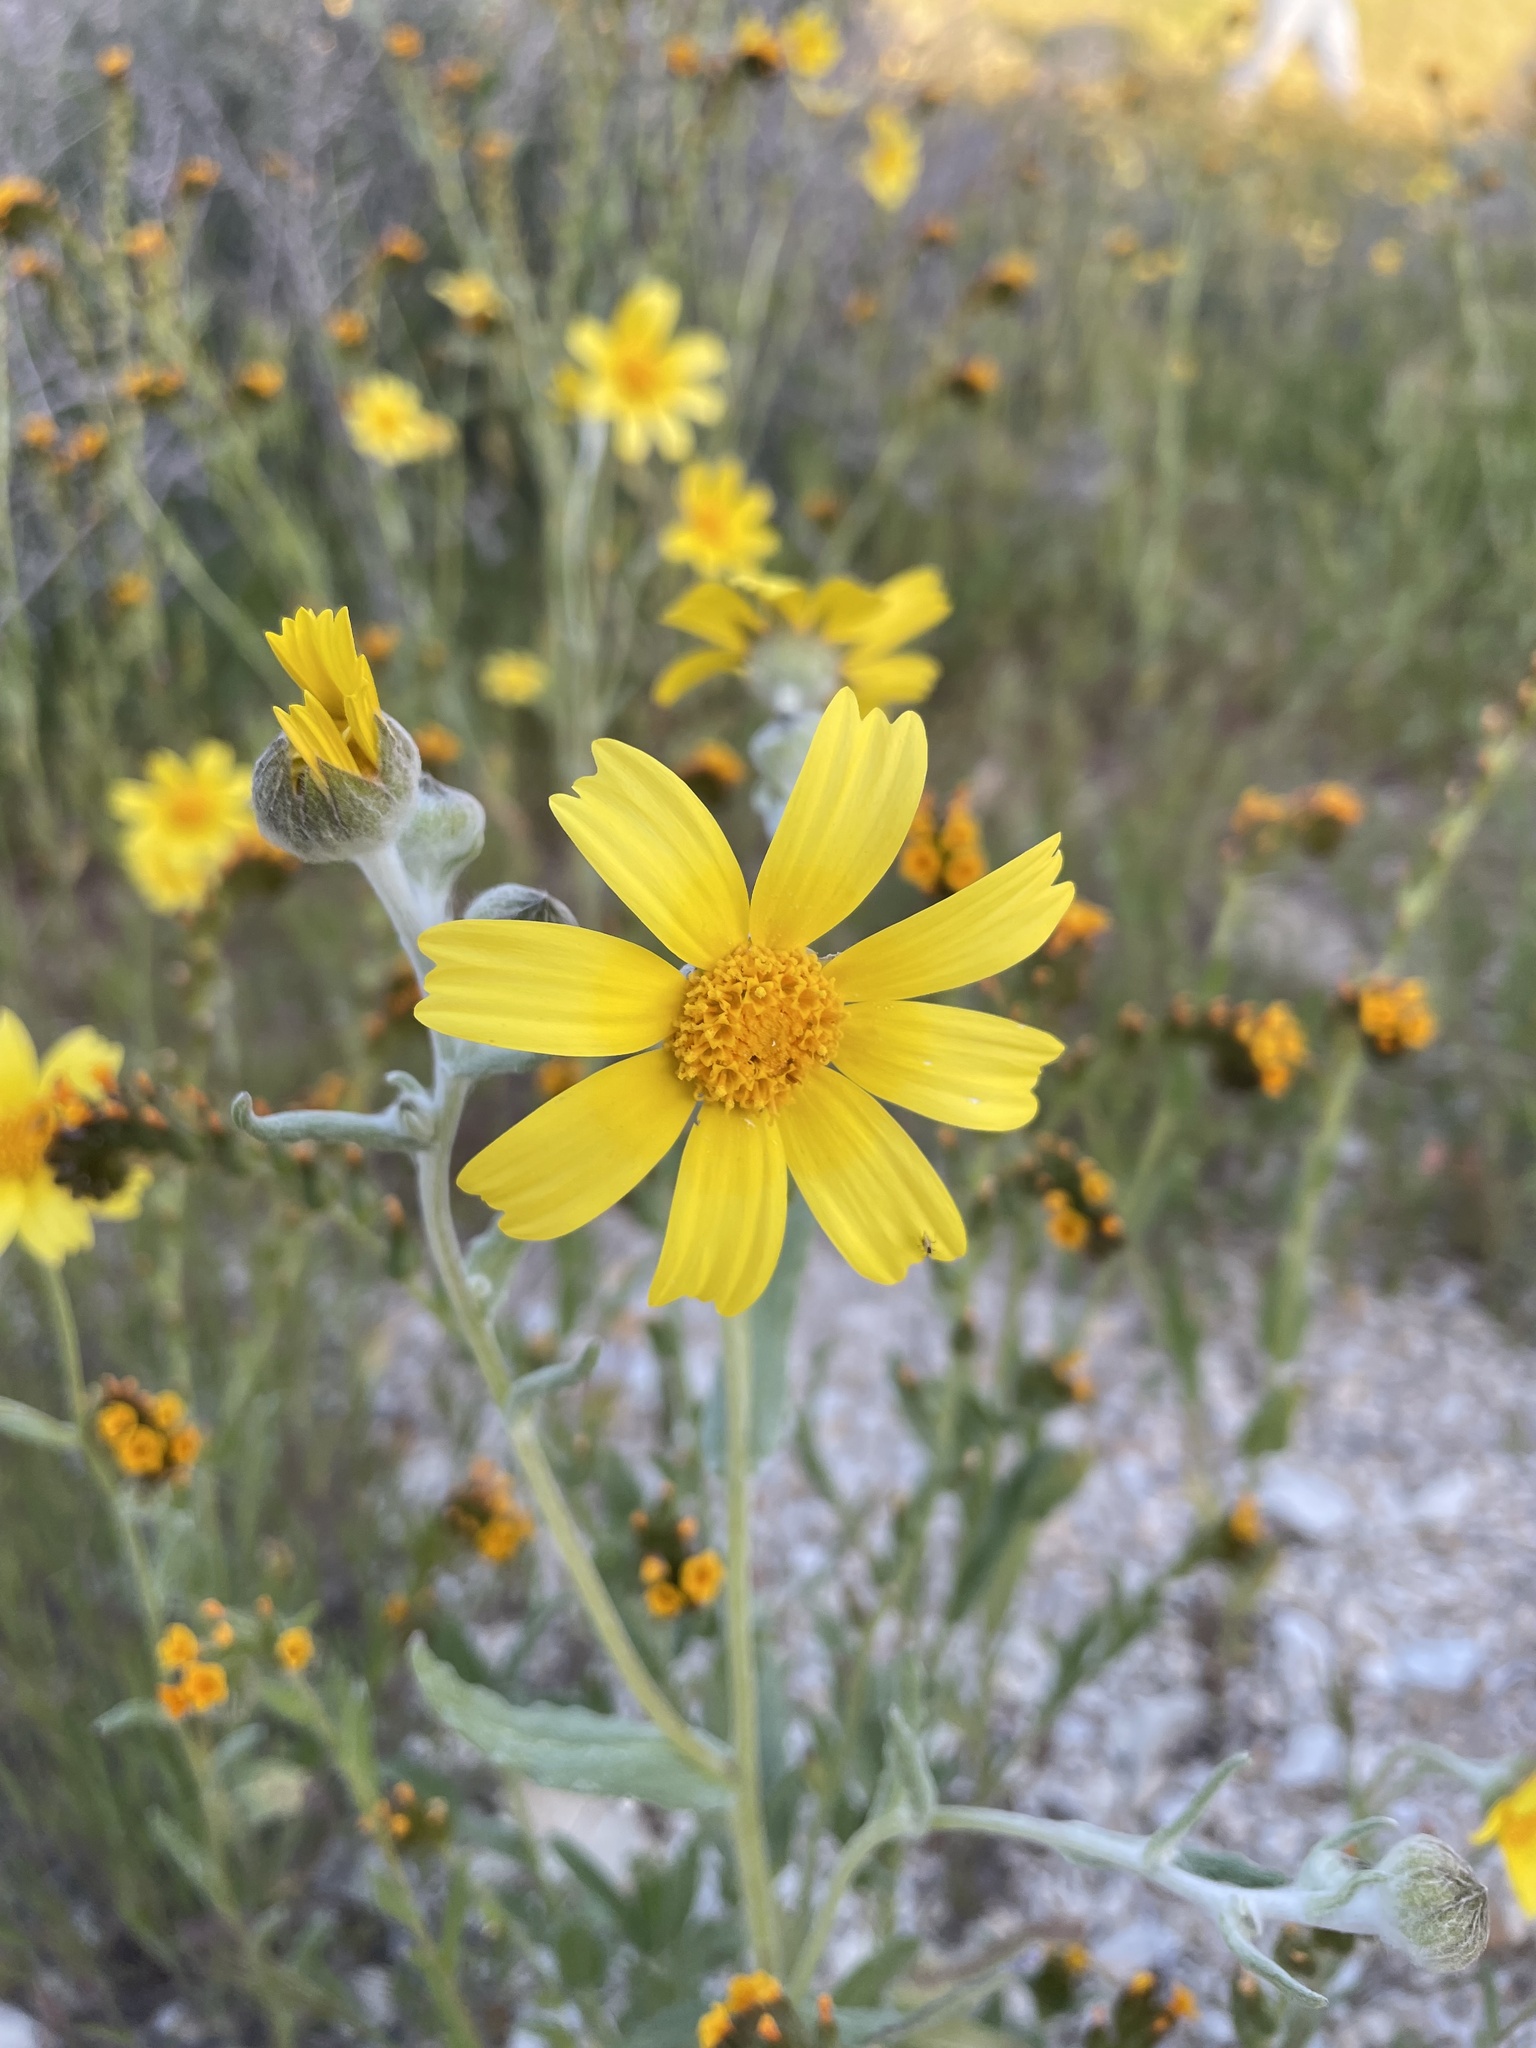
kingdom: Plantae
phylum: Tracheophyta
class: Magnoliopsida
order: Asterales
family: Asteraceae
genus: Monolopia
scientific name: Monolopia lanceolata
